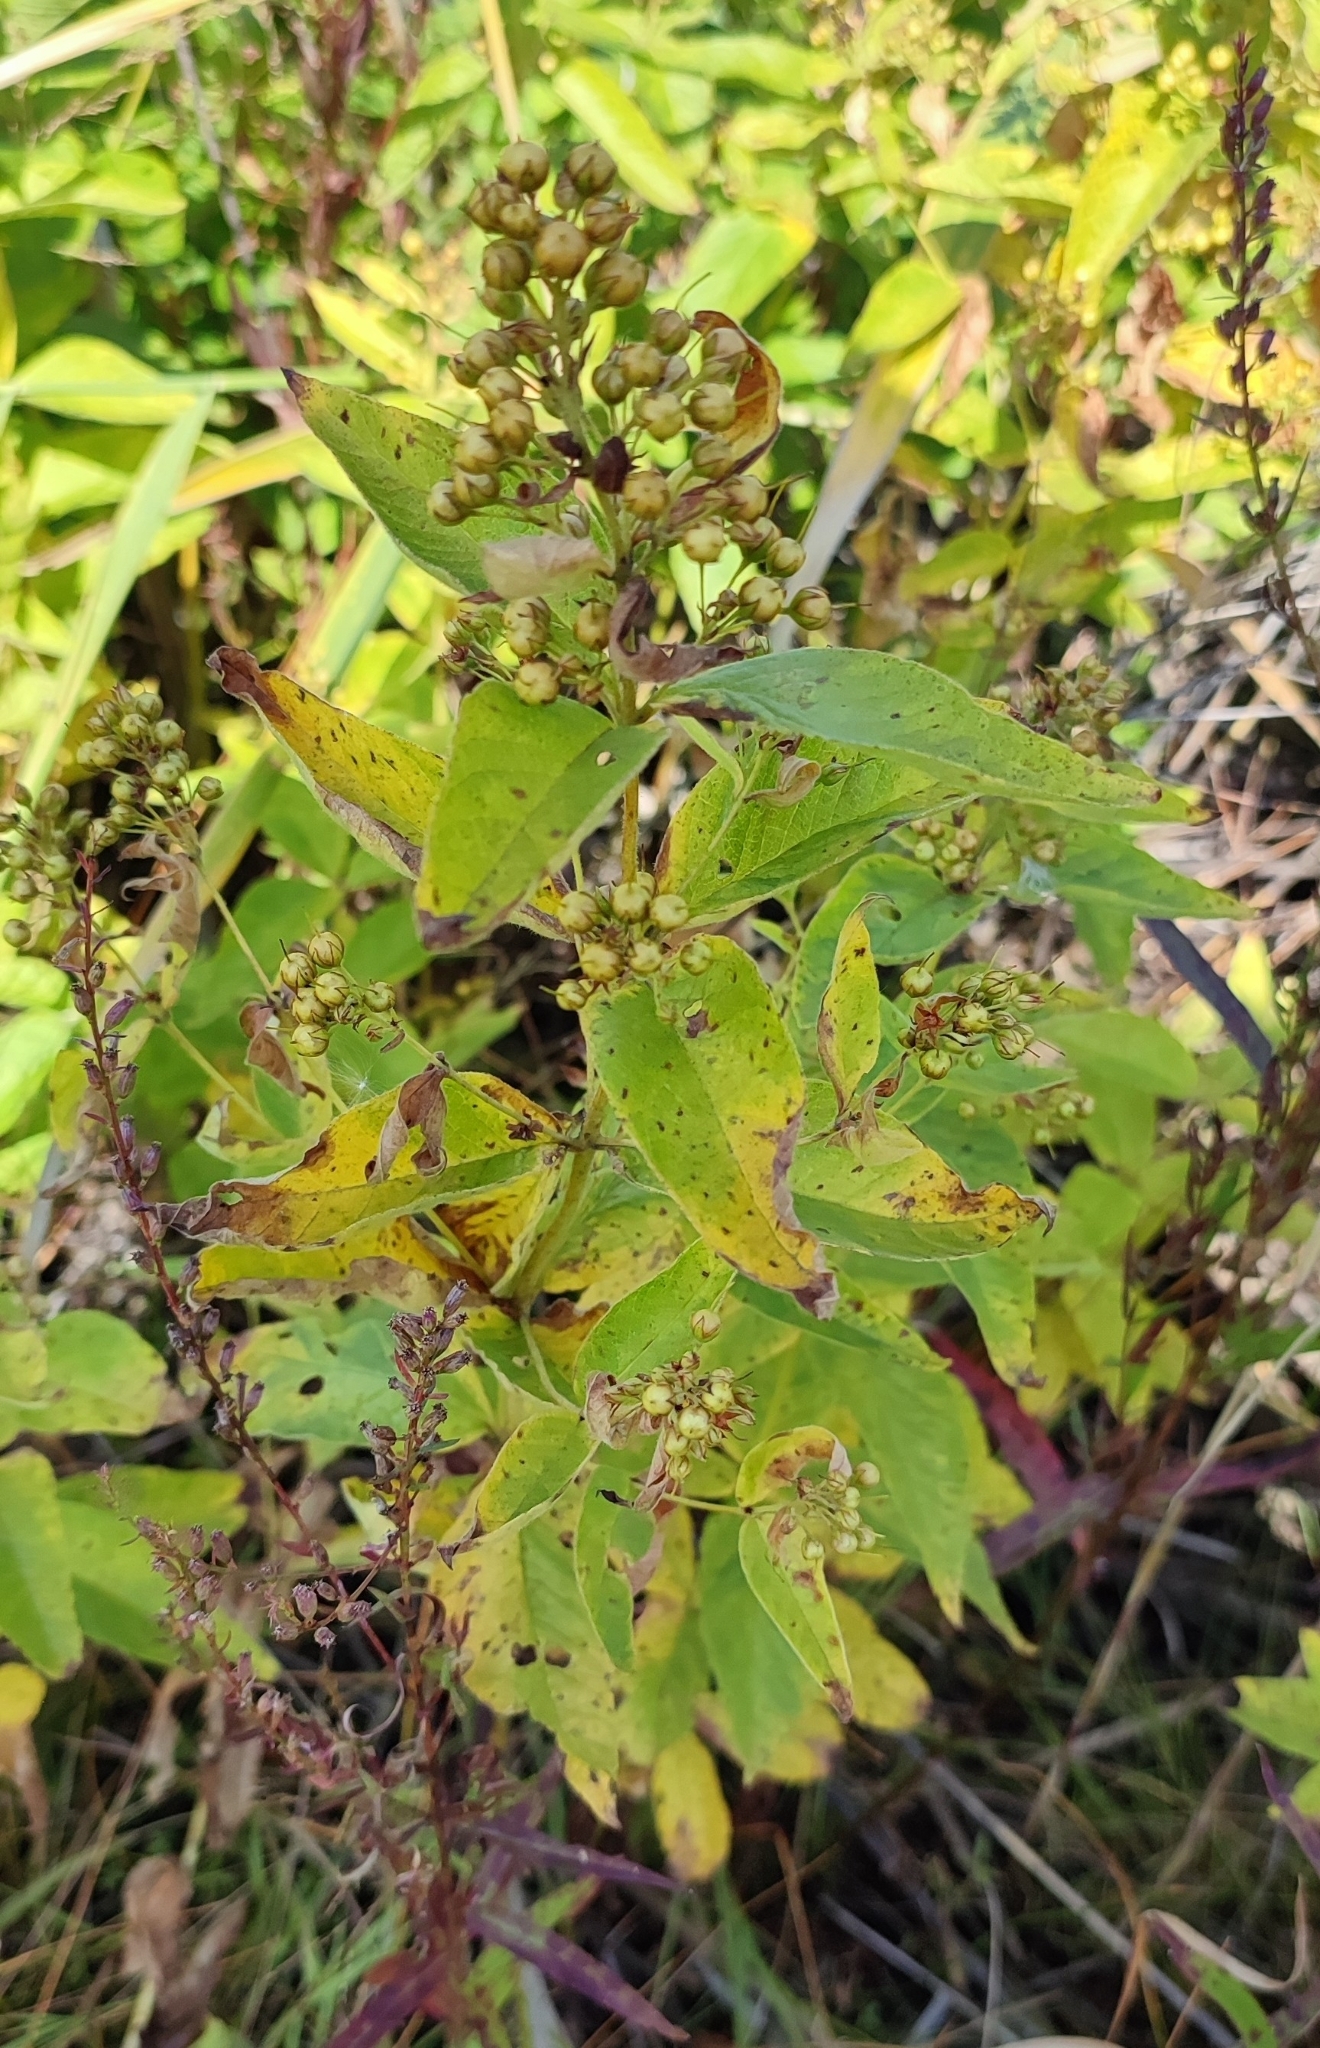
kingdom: Plantae
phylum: Tracheophyta
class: Magnoliopsida
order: Ericales
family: Primulaceae
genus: Lysimachia
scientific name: Lysimachia vulgaris
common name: Yellow loosestrife
